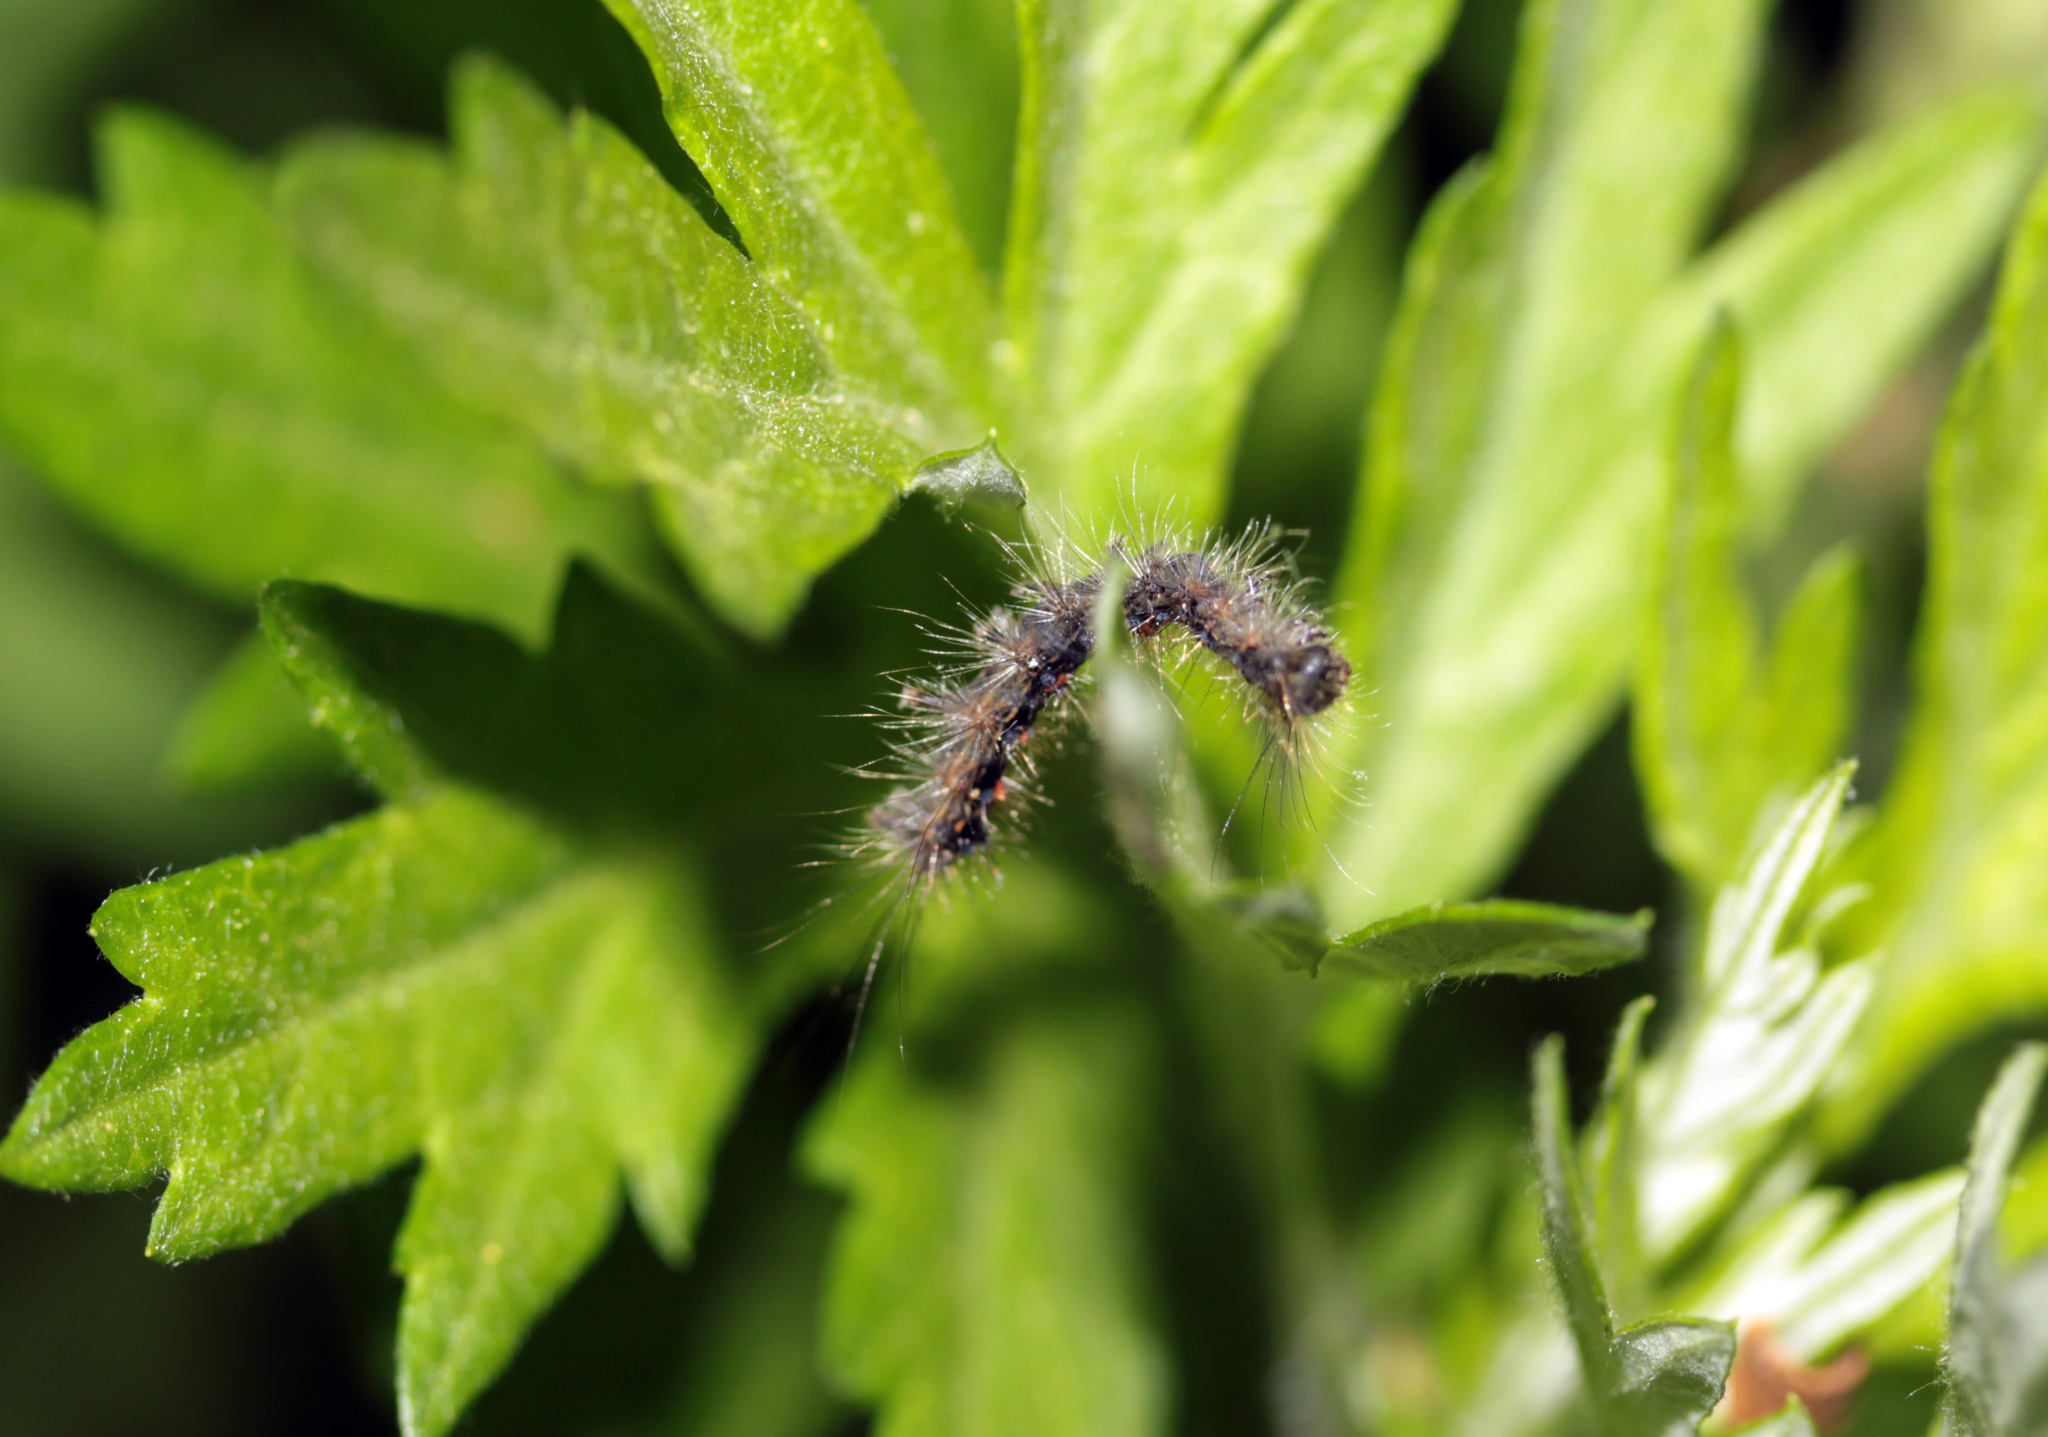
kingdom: Animalia
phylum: Arthropoda
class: Insecta
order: Lepidoptera
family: Erebidae
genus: Lymantria
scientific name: Lymantria dispar
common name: Gypsy moth
